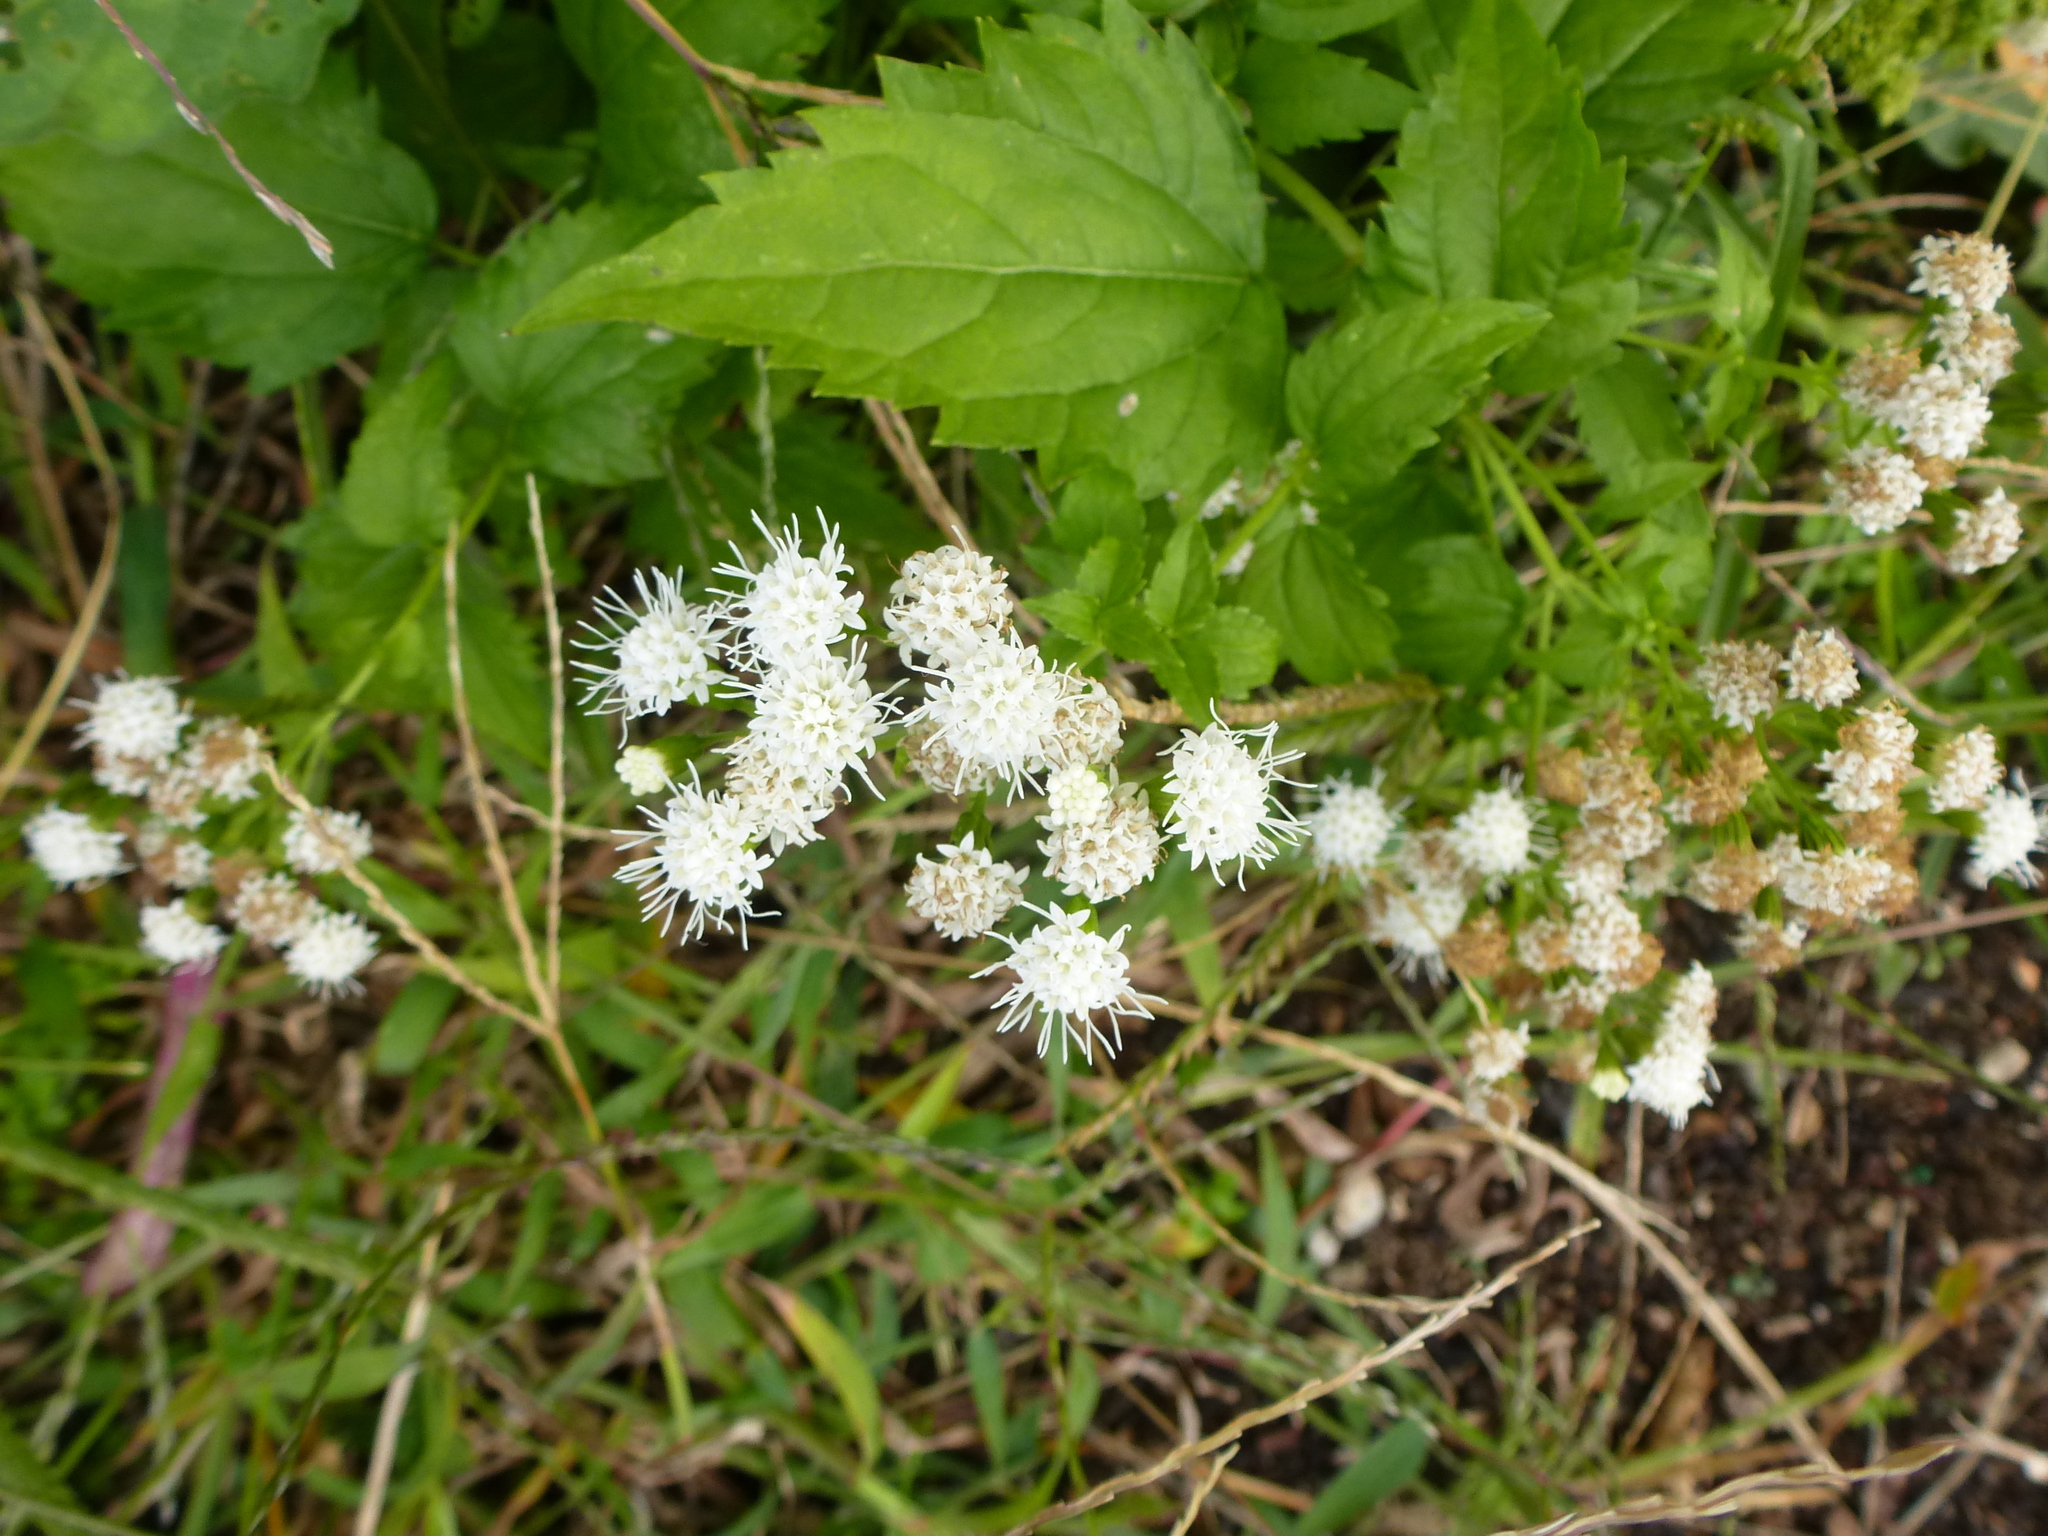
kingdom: Plantae
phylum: Tracheophyta
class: Magnoliopsida
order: Asterales
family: Asteraceae
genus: Ageratina
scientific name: Ageratina altissima
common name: White snakeroot
